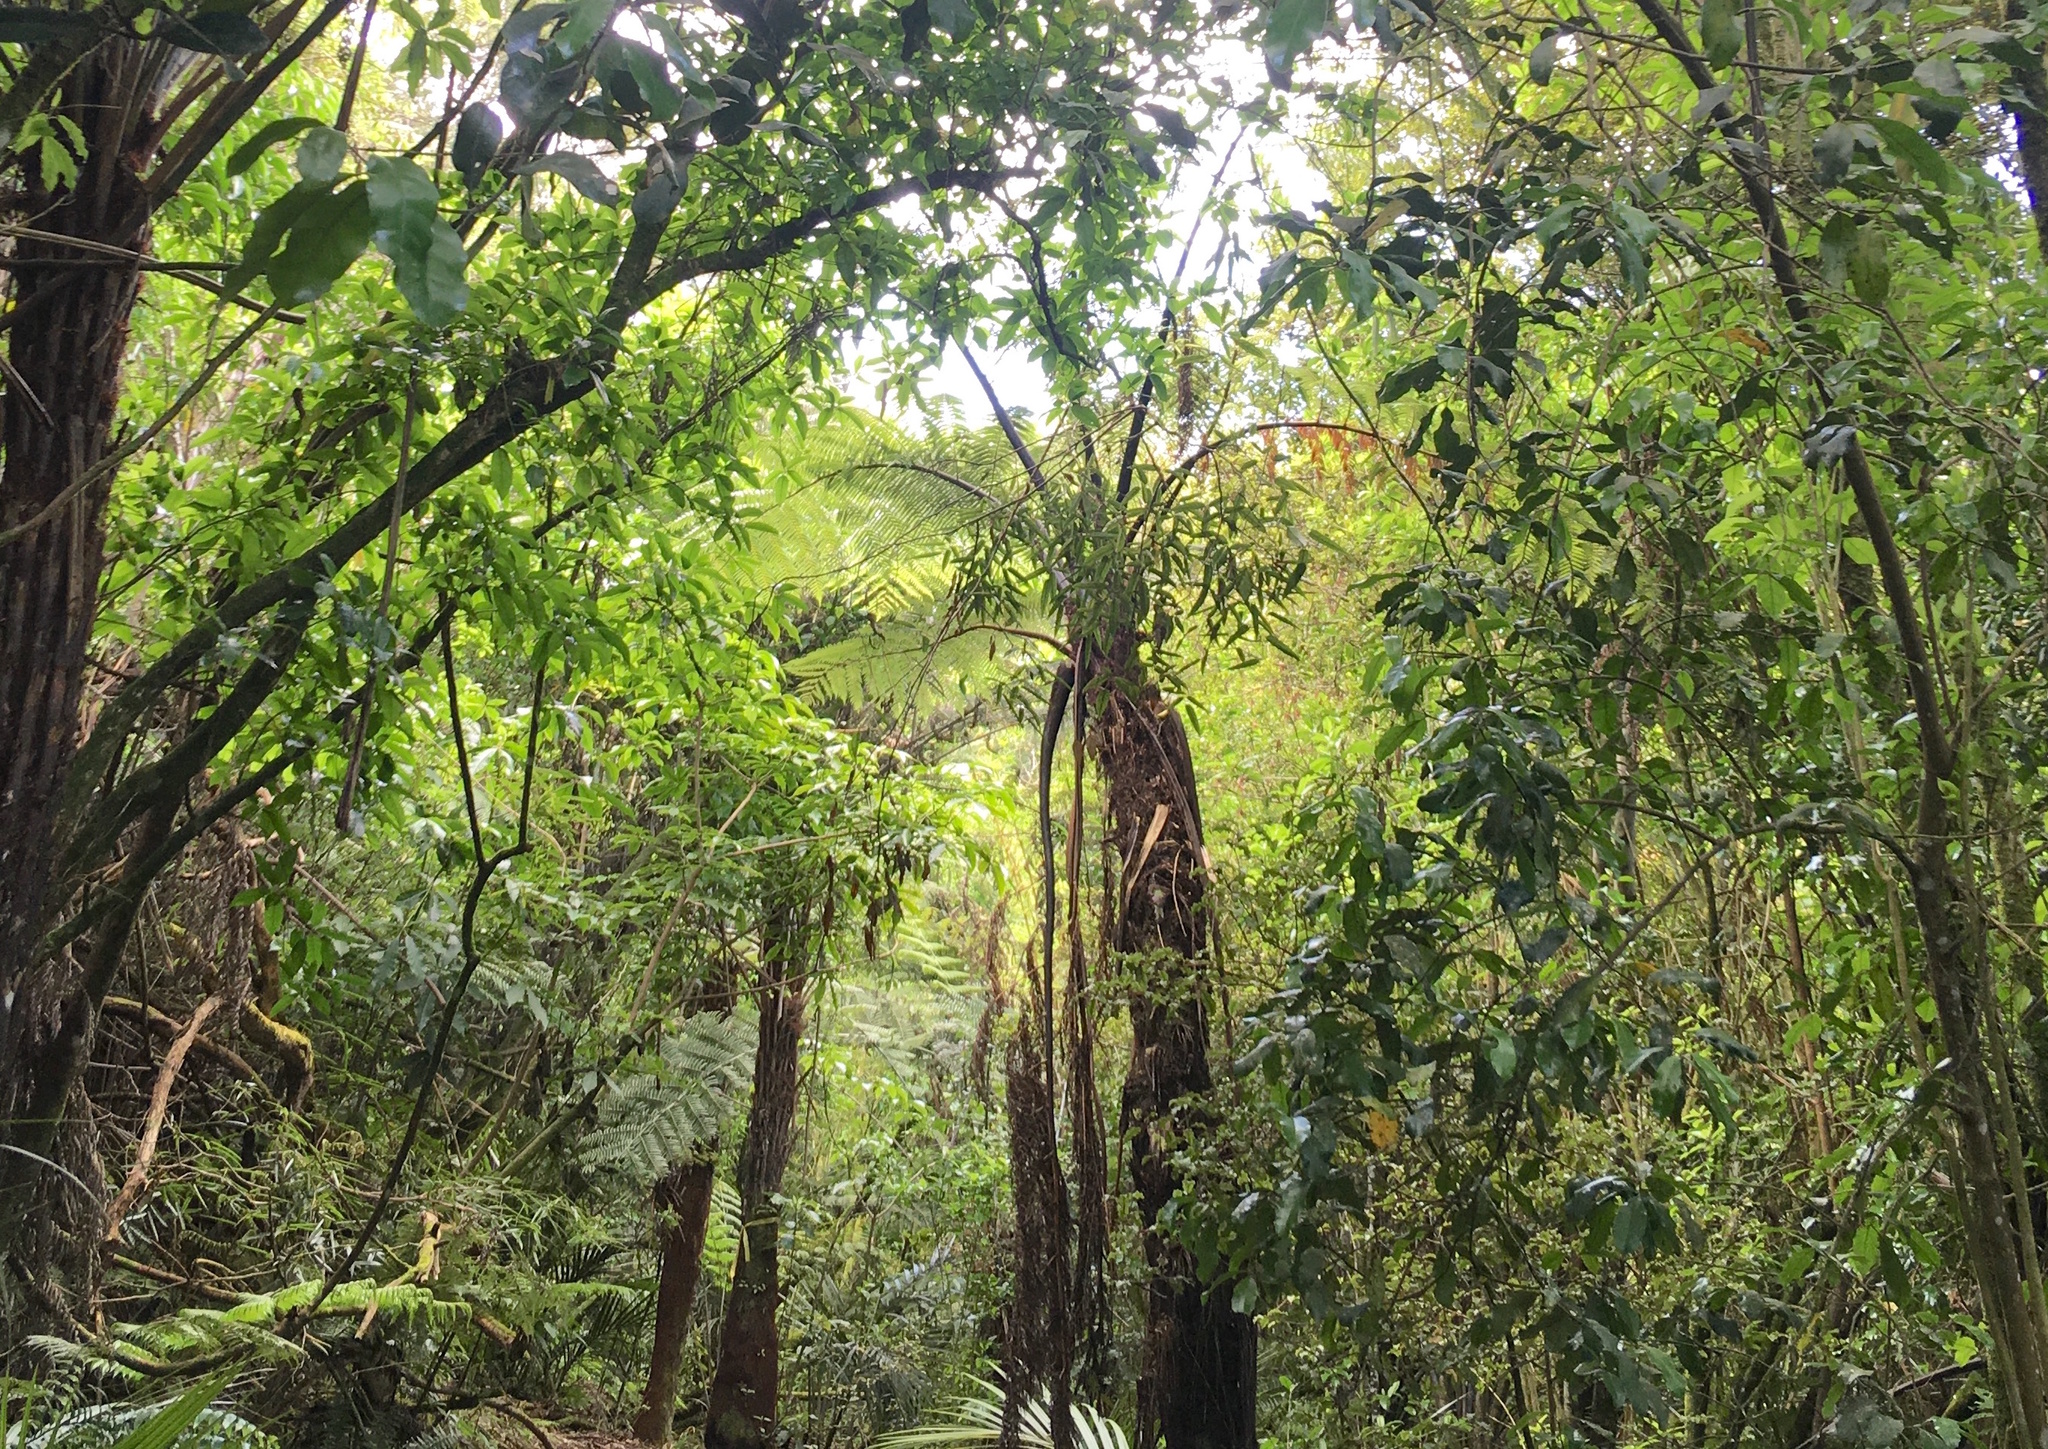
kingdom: Plantae
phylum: Tracheophyta
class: Magnoliopsida
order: Rosales
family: Rosaceae
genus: Rubus
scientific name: Rubus cissoides
